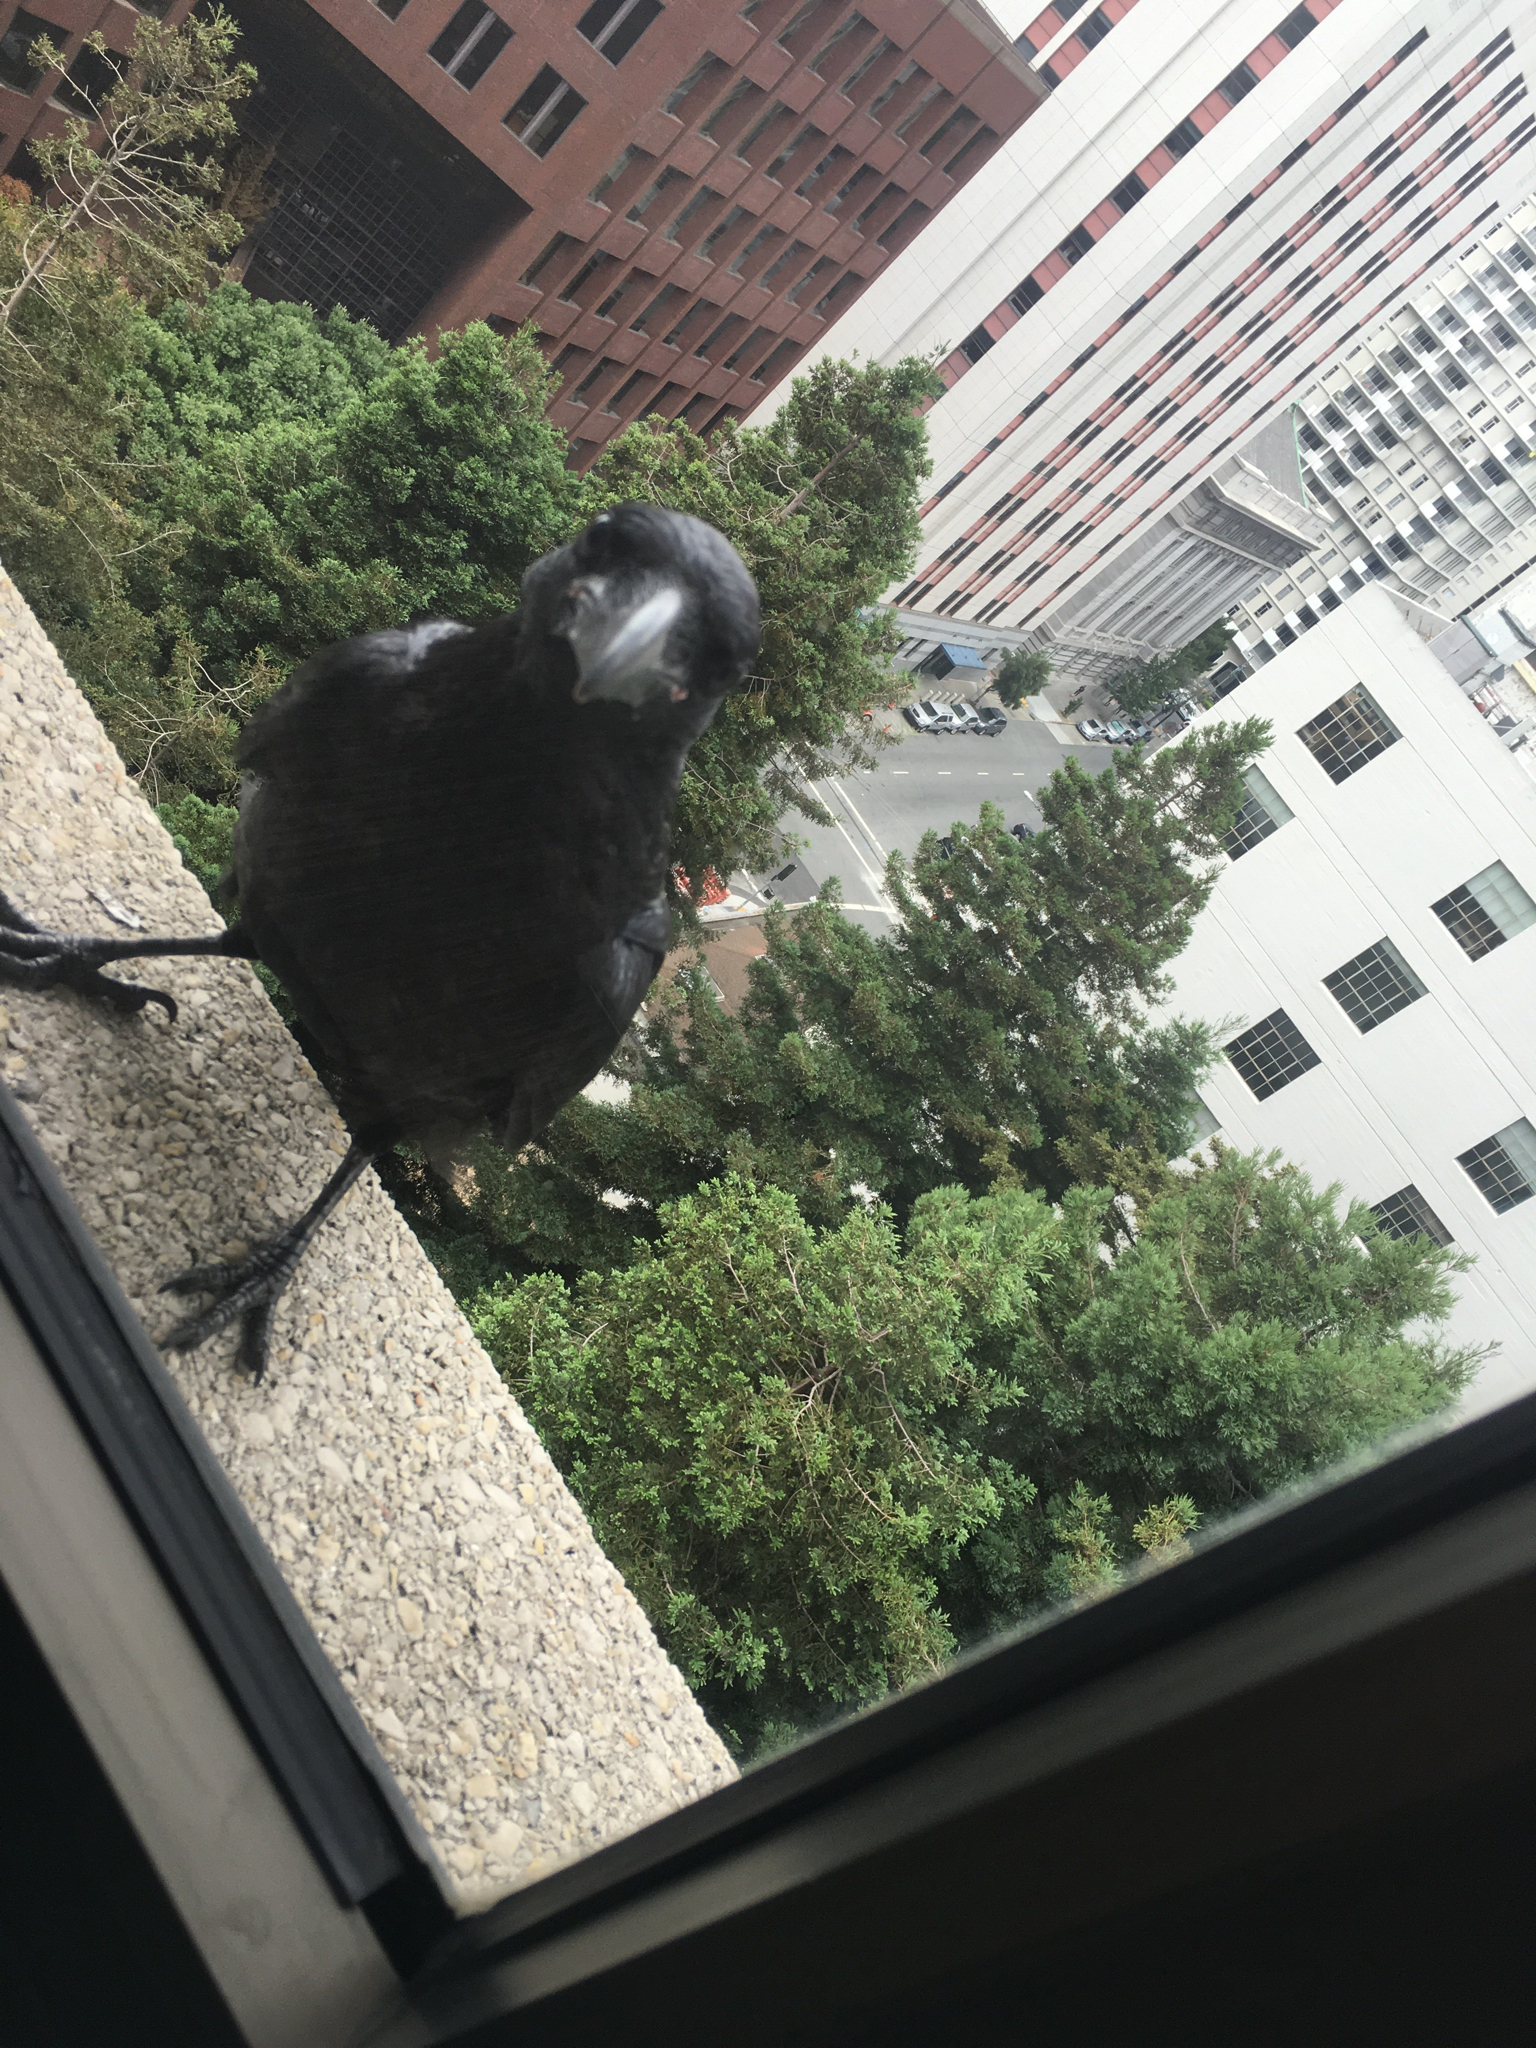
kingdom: Animalia
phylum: Chordata
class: Aves
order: Passeriformes
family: Corvidae
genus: Corvus
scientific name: Corvus brachyrhynchos
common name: American crow
